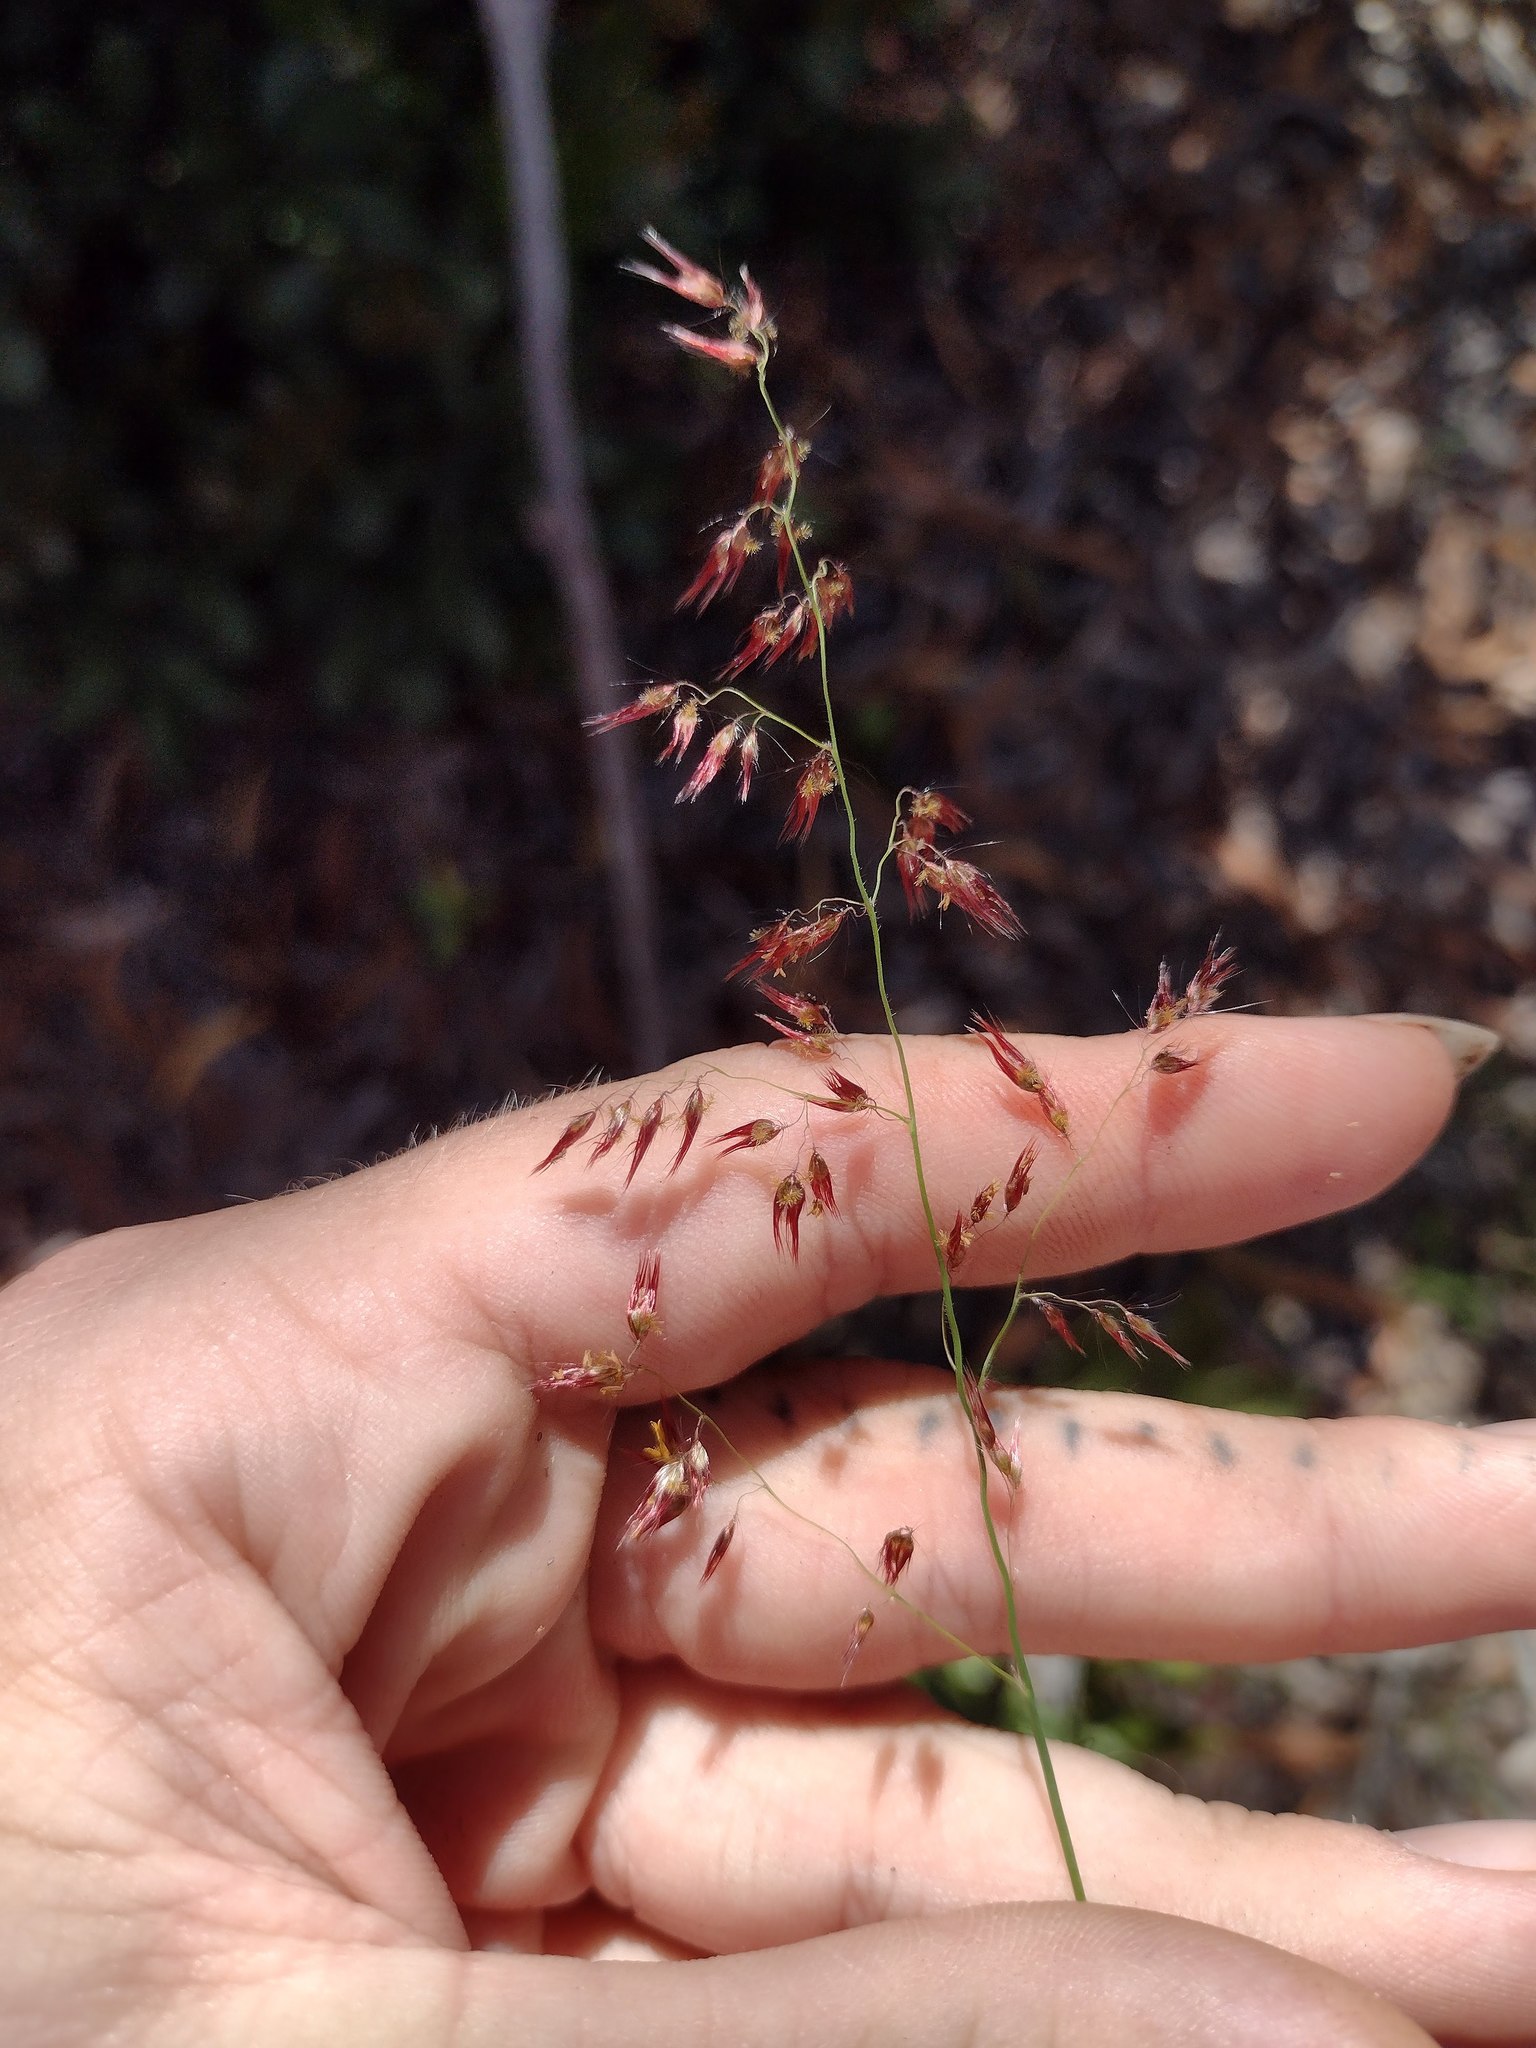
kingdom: Plantae
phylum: Tracheophyta
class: Liliopsida
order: Poales
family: Poaceae
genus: Melinis
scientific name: Melinis repens
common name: Rose natal grass
